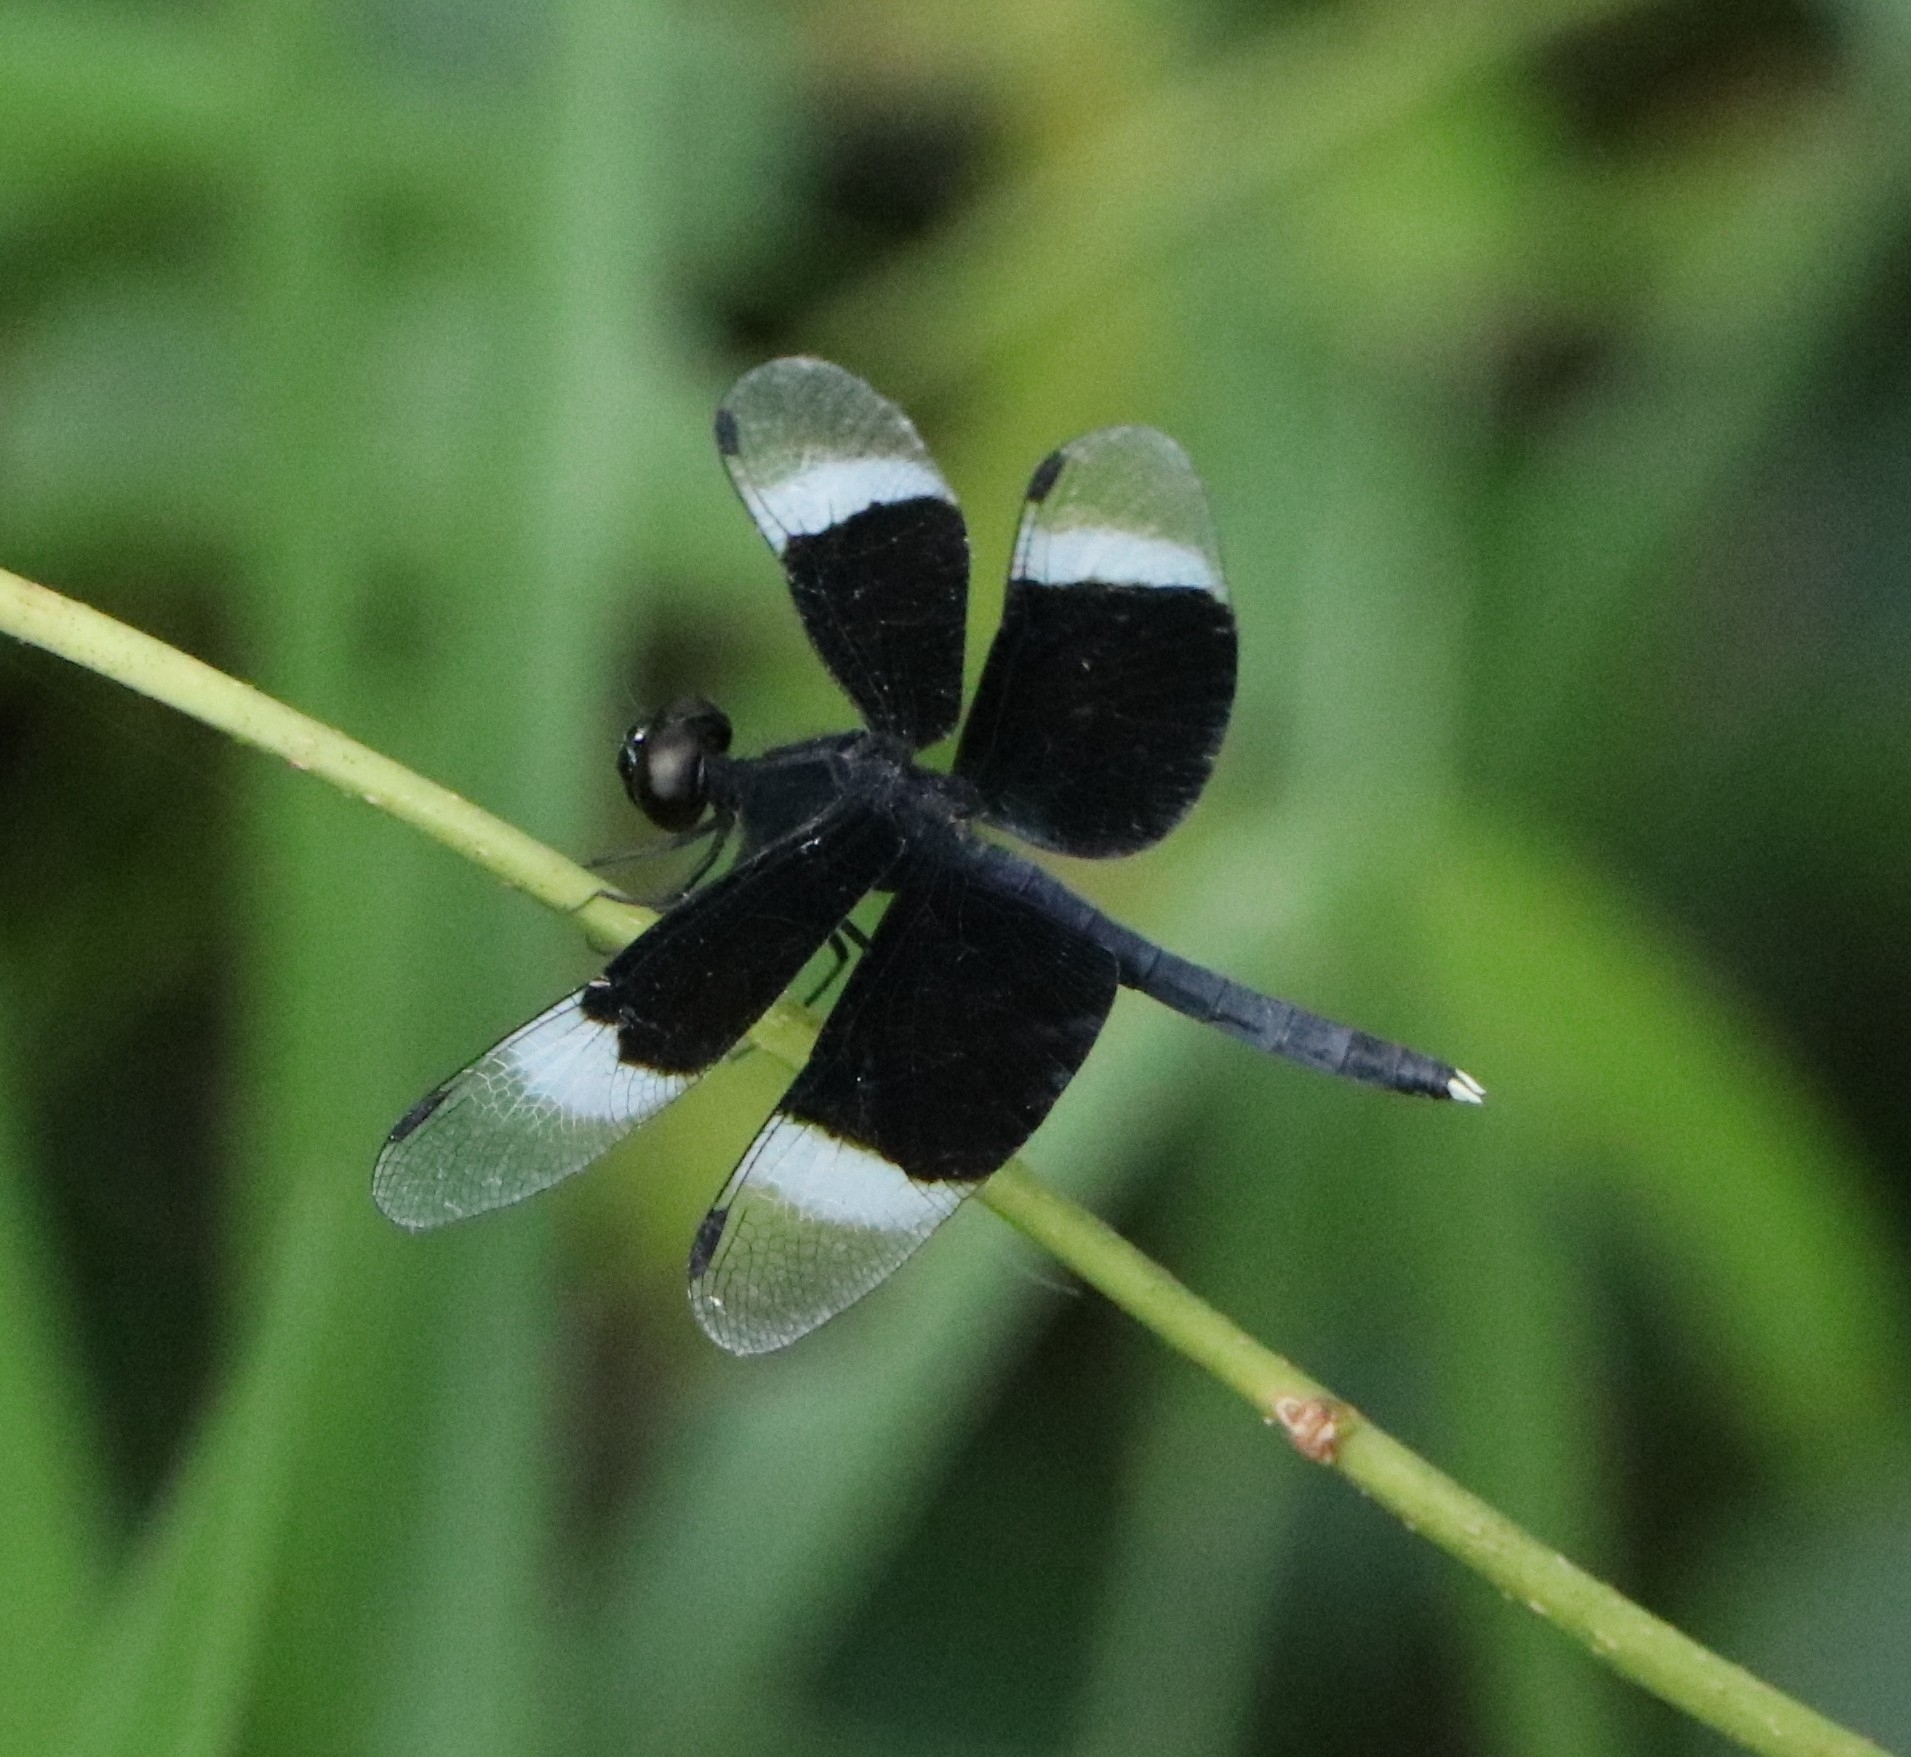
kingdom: Animalia
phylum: Arthropoda
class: Insecta
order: Odonata
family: Libellulidae
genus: Neurothemis
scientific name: Neurothemis tullia
